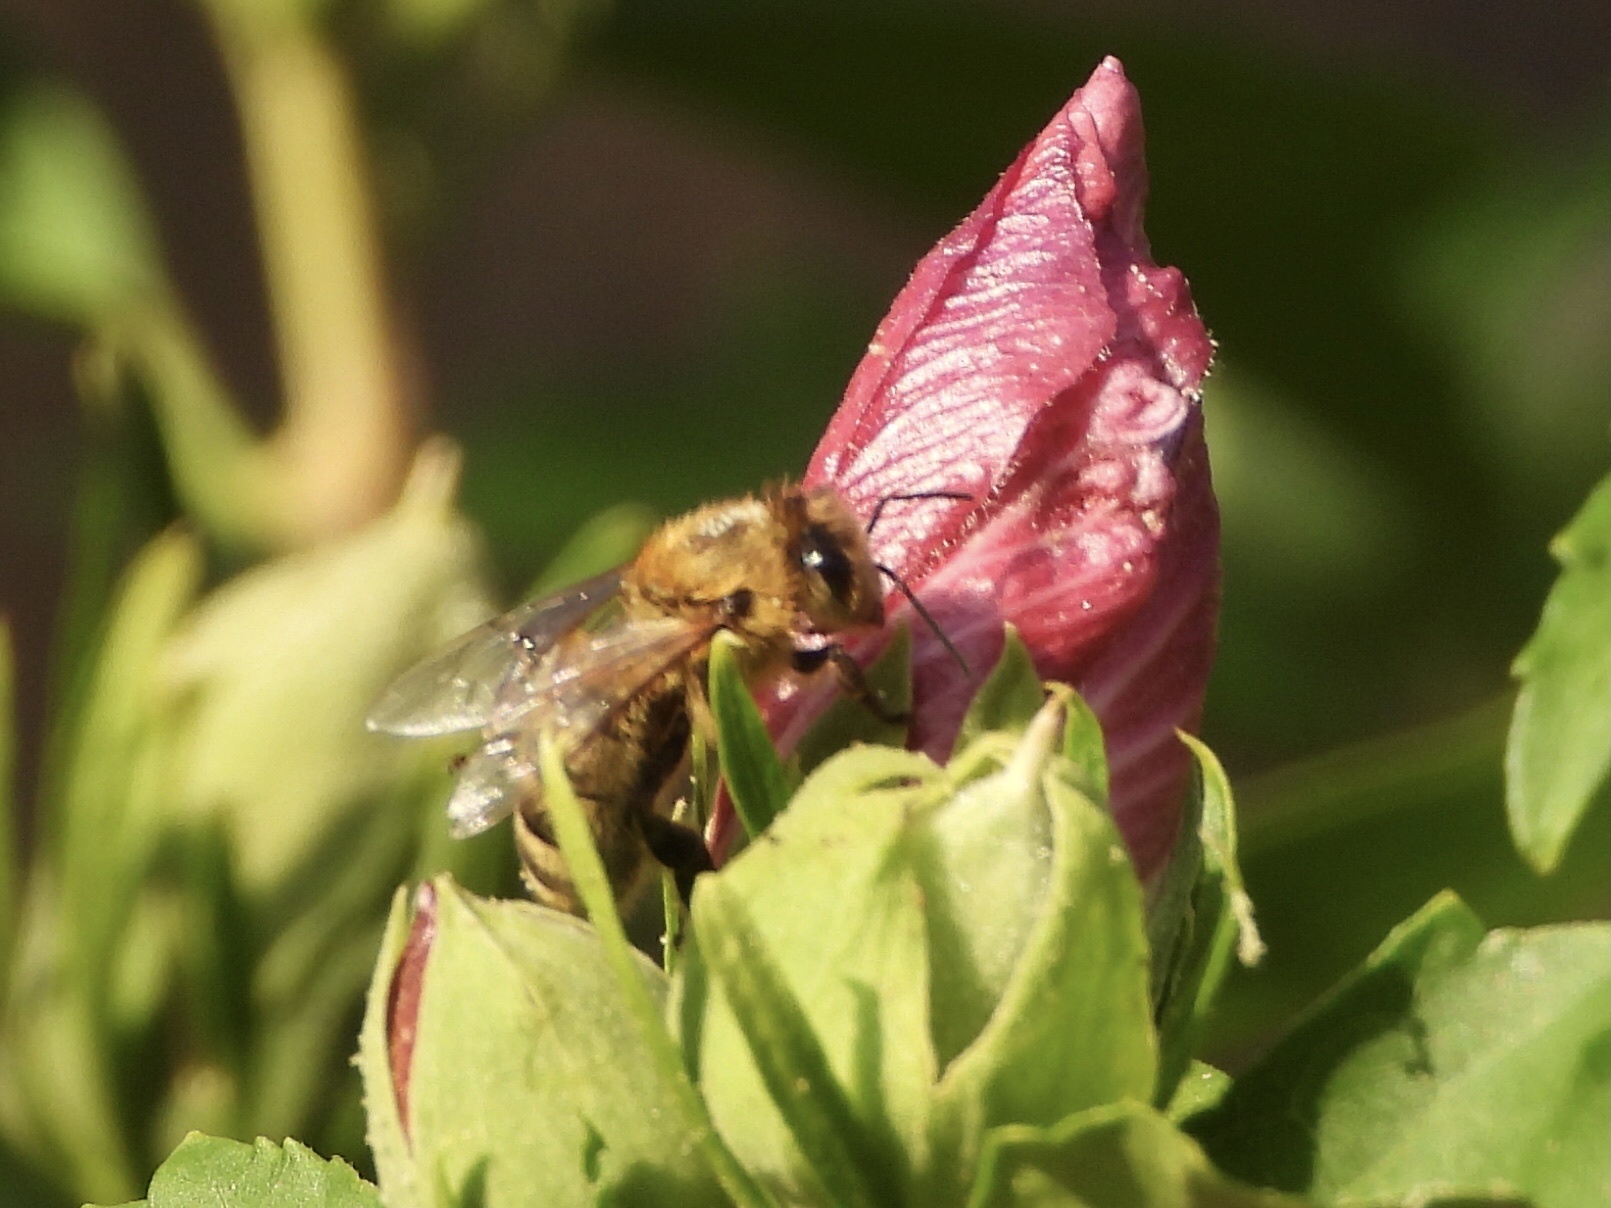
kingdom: Animalia
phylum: Arthropoda
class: Insecta
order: Hymenoptera
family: Apidae
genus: Apis
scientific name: Apis mellifera
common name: Honey bee
